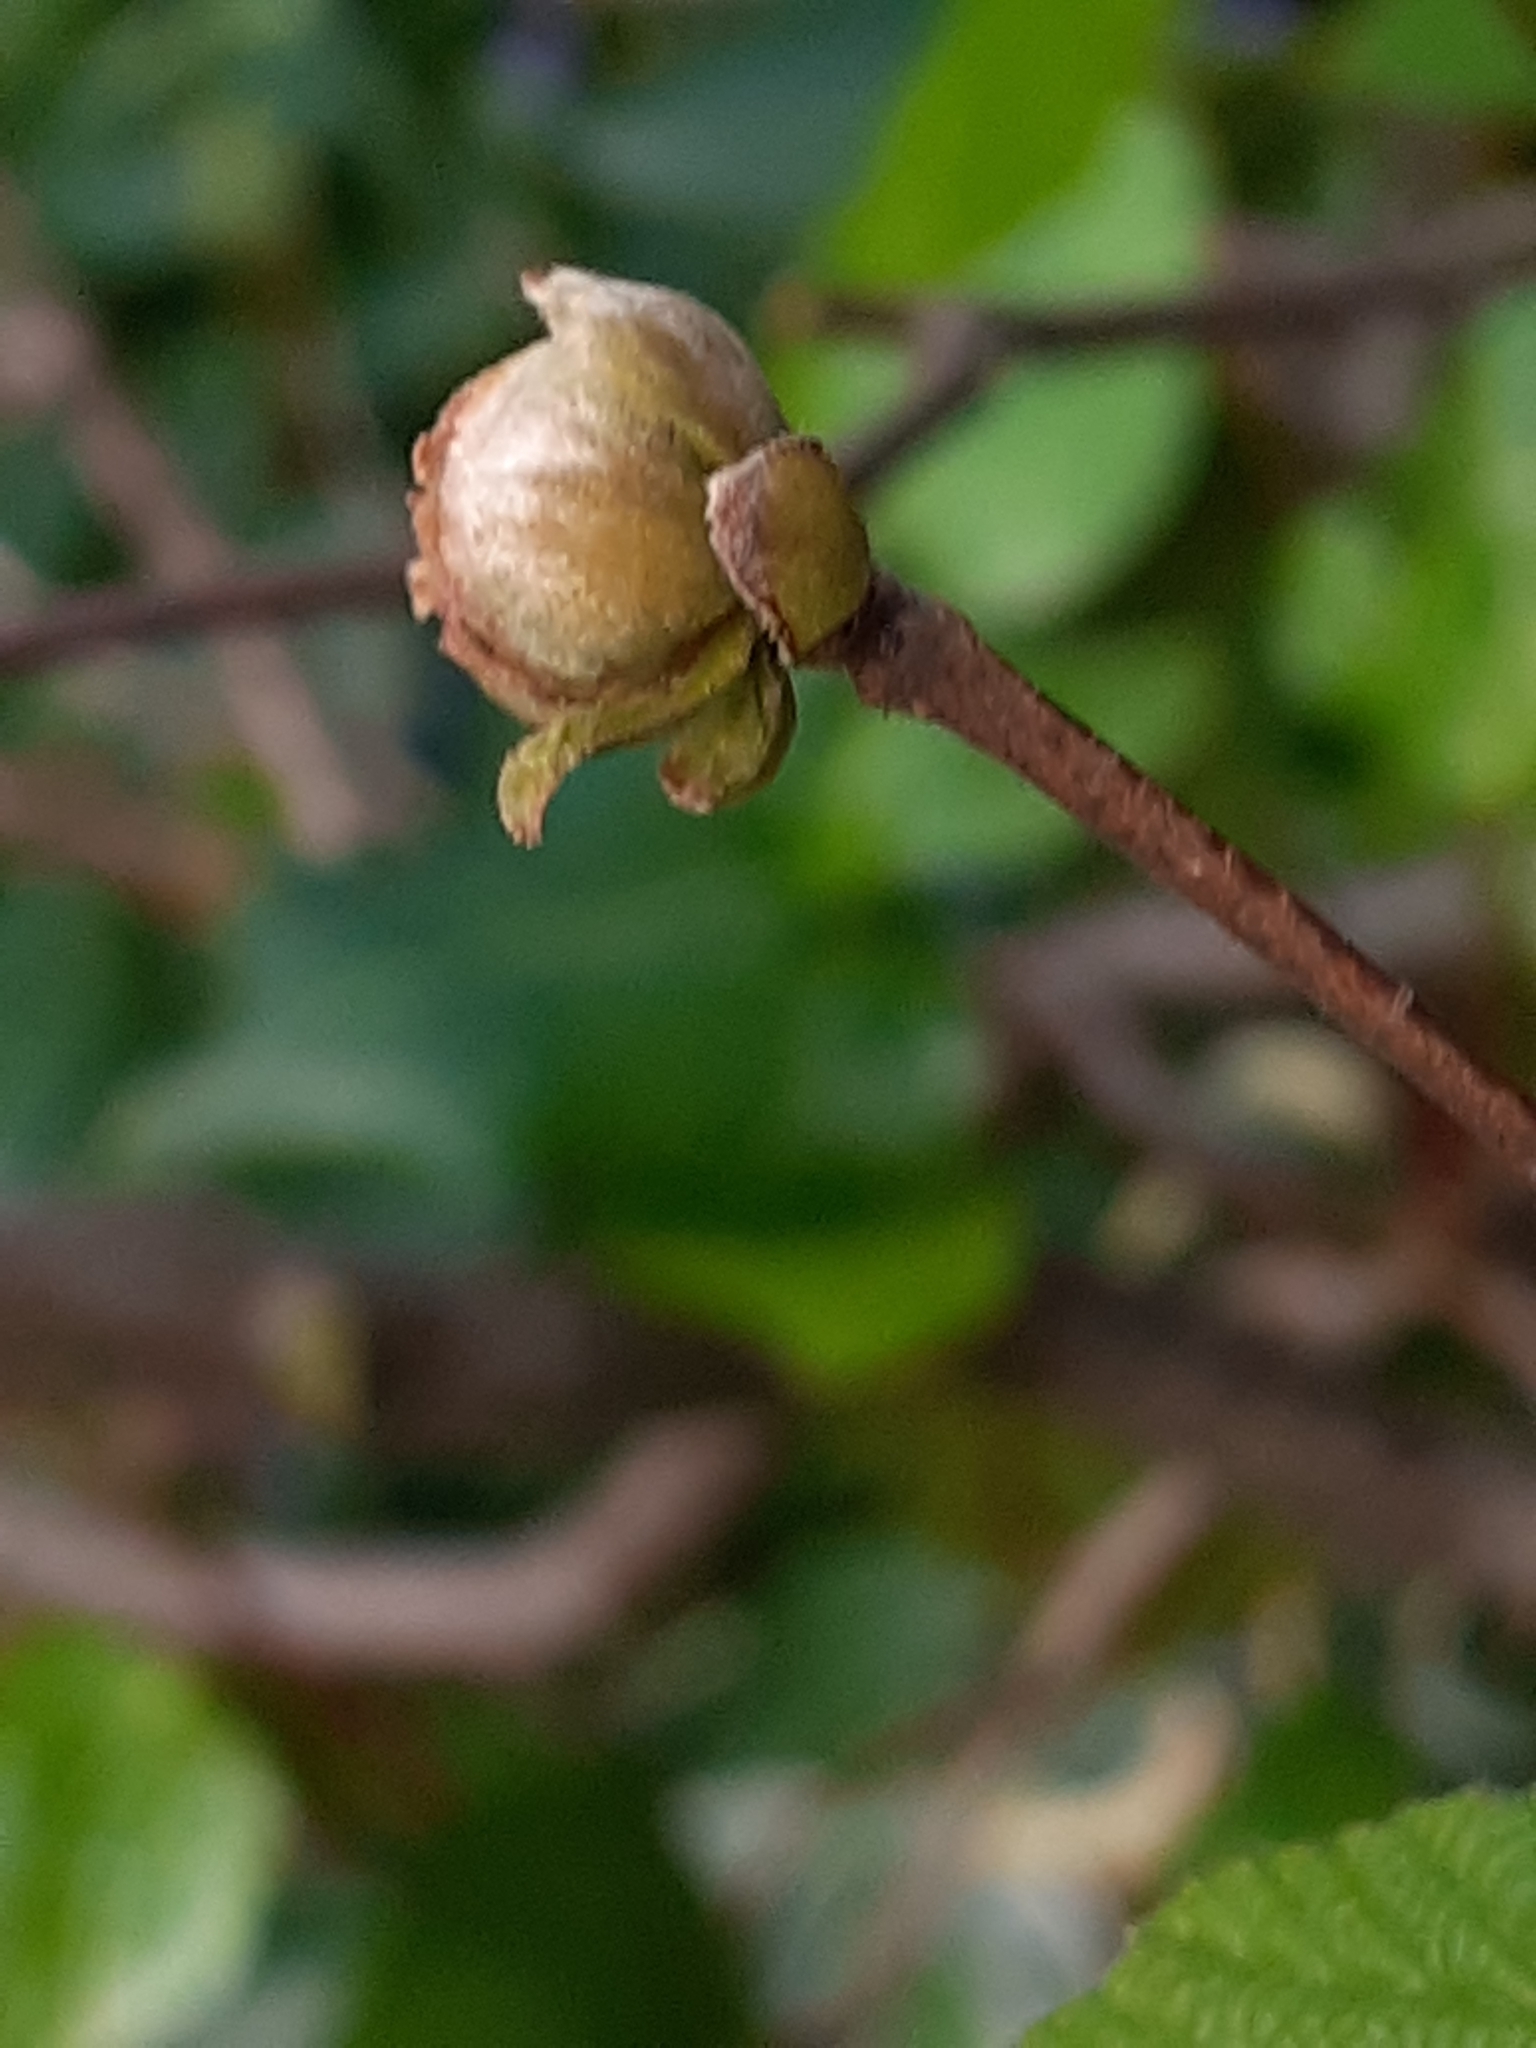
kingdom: Animalia
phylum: Arthropoda
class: Arachnida
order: Trombidiformes
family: Phytoptidae
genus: Phytoptus
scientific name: Phytoptus avellanae
